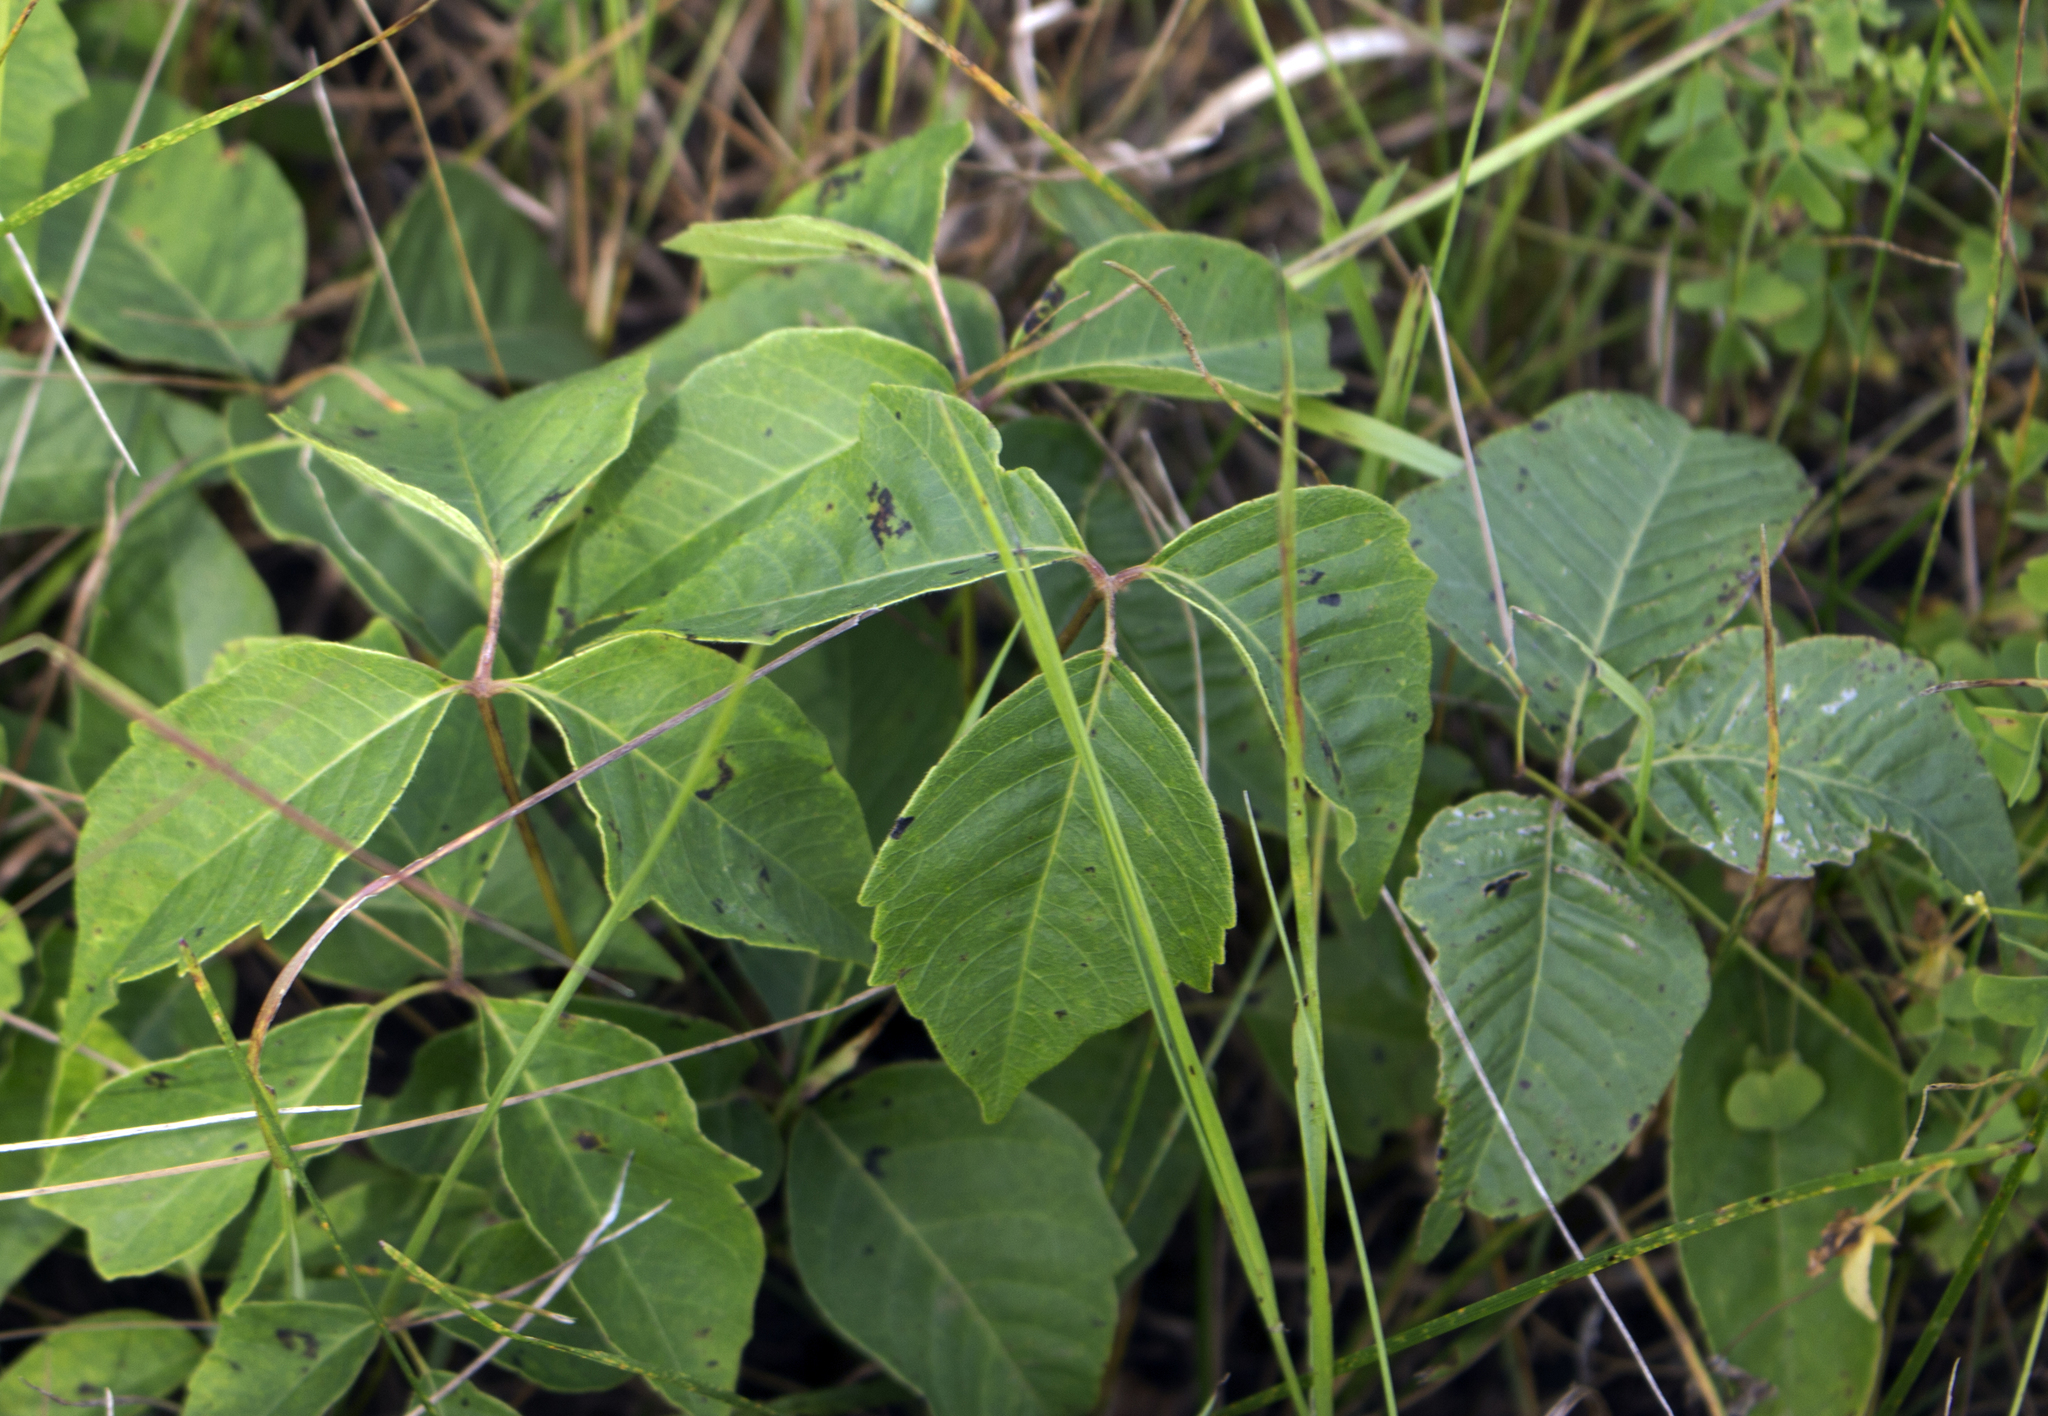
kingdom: Plantae
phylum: Tracheophyta
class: Magnoliopsida
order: Sapindales
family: Anacardiaceae
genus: Toxicodendron
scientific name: Toxicodendron rydbergii
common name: Rydberg's poison-ivy
